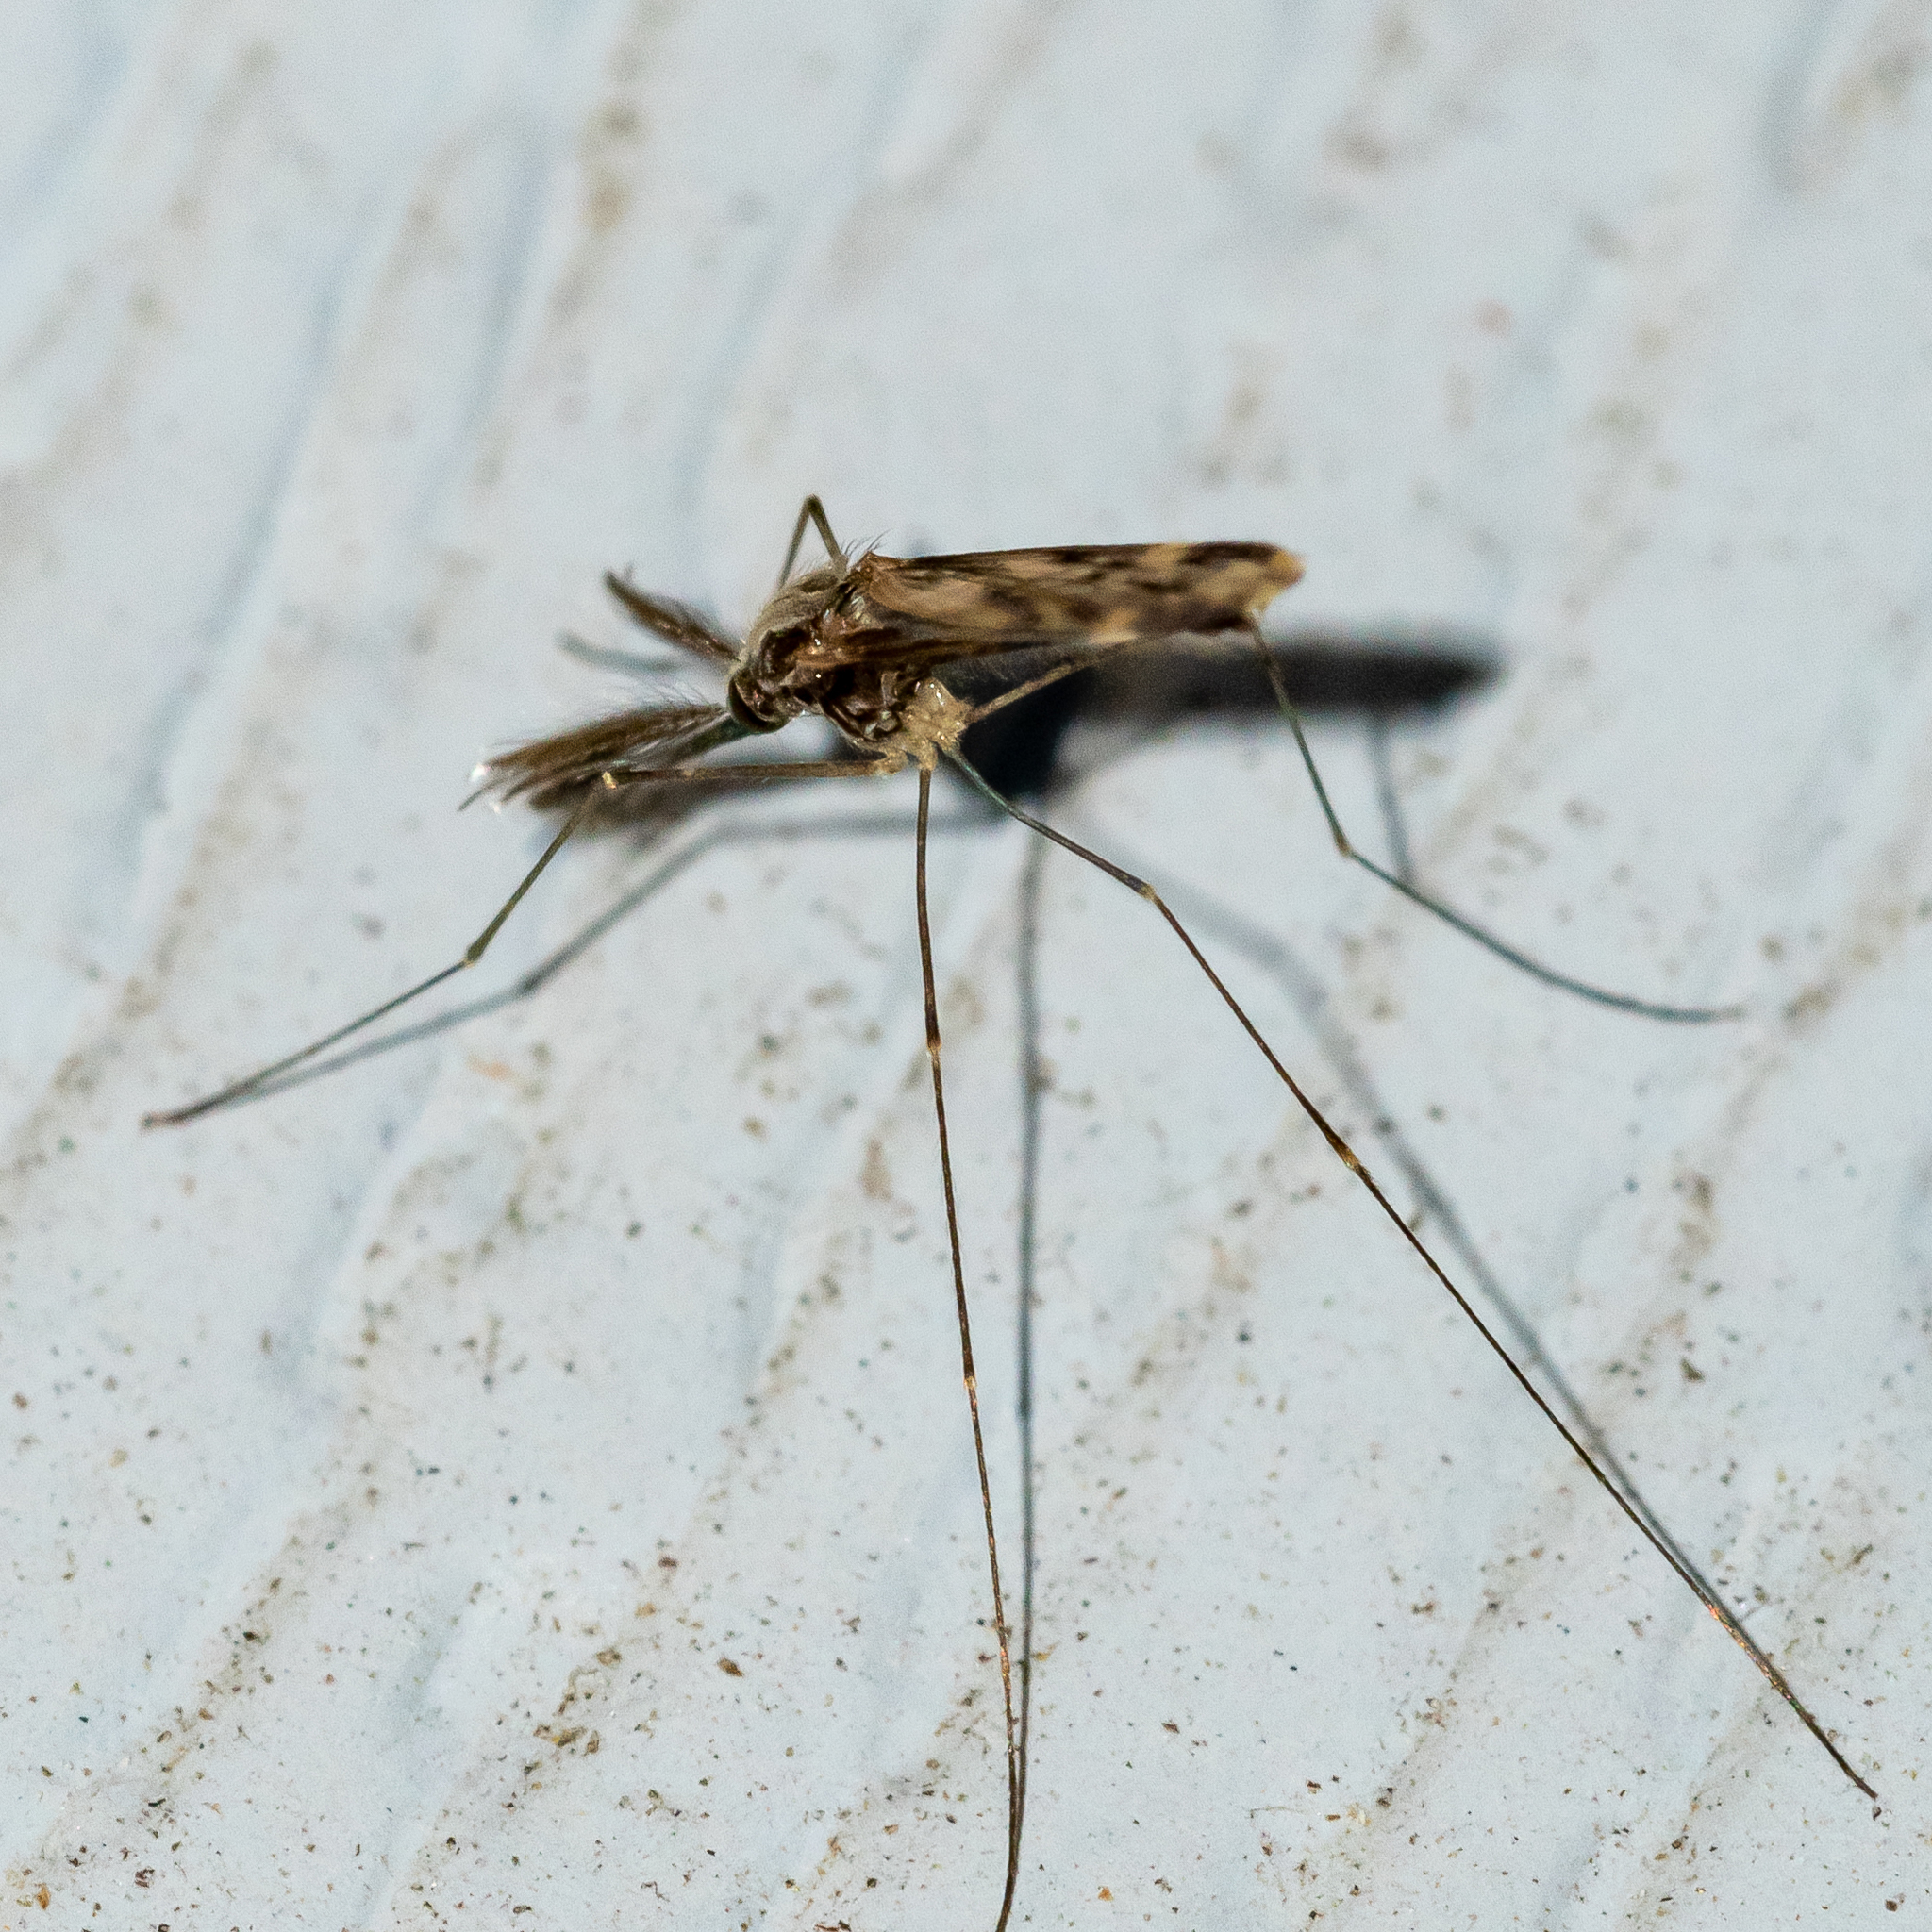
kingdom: Animalia
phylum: Arthropoda
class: Insecta
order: Diptera
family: Culicidae
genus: Anopheles
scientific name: Anopheles punctipennis
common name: Woodland malaria mosquito
